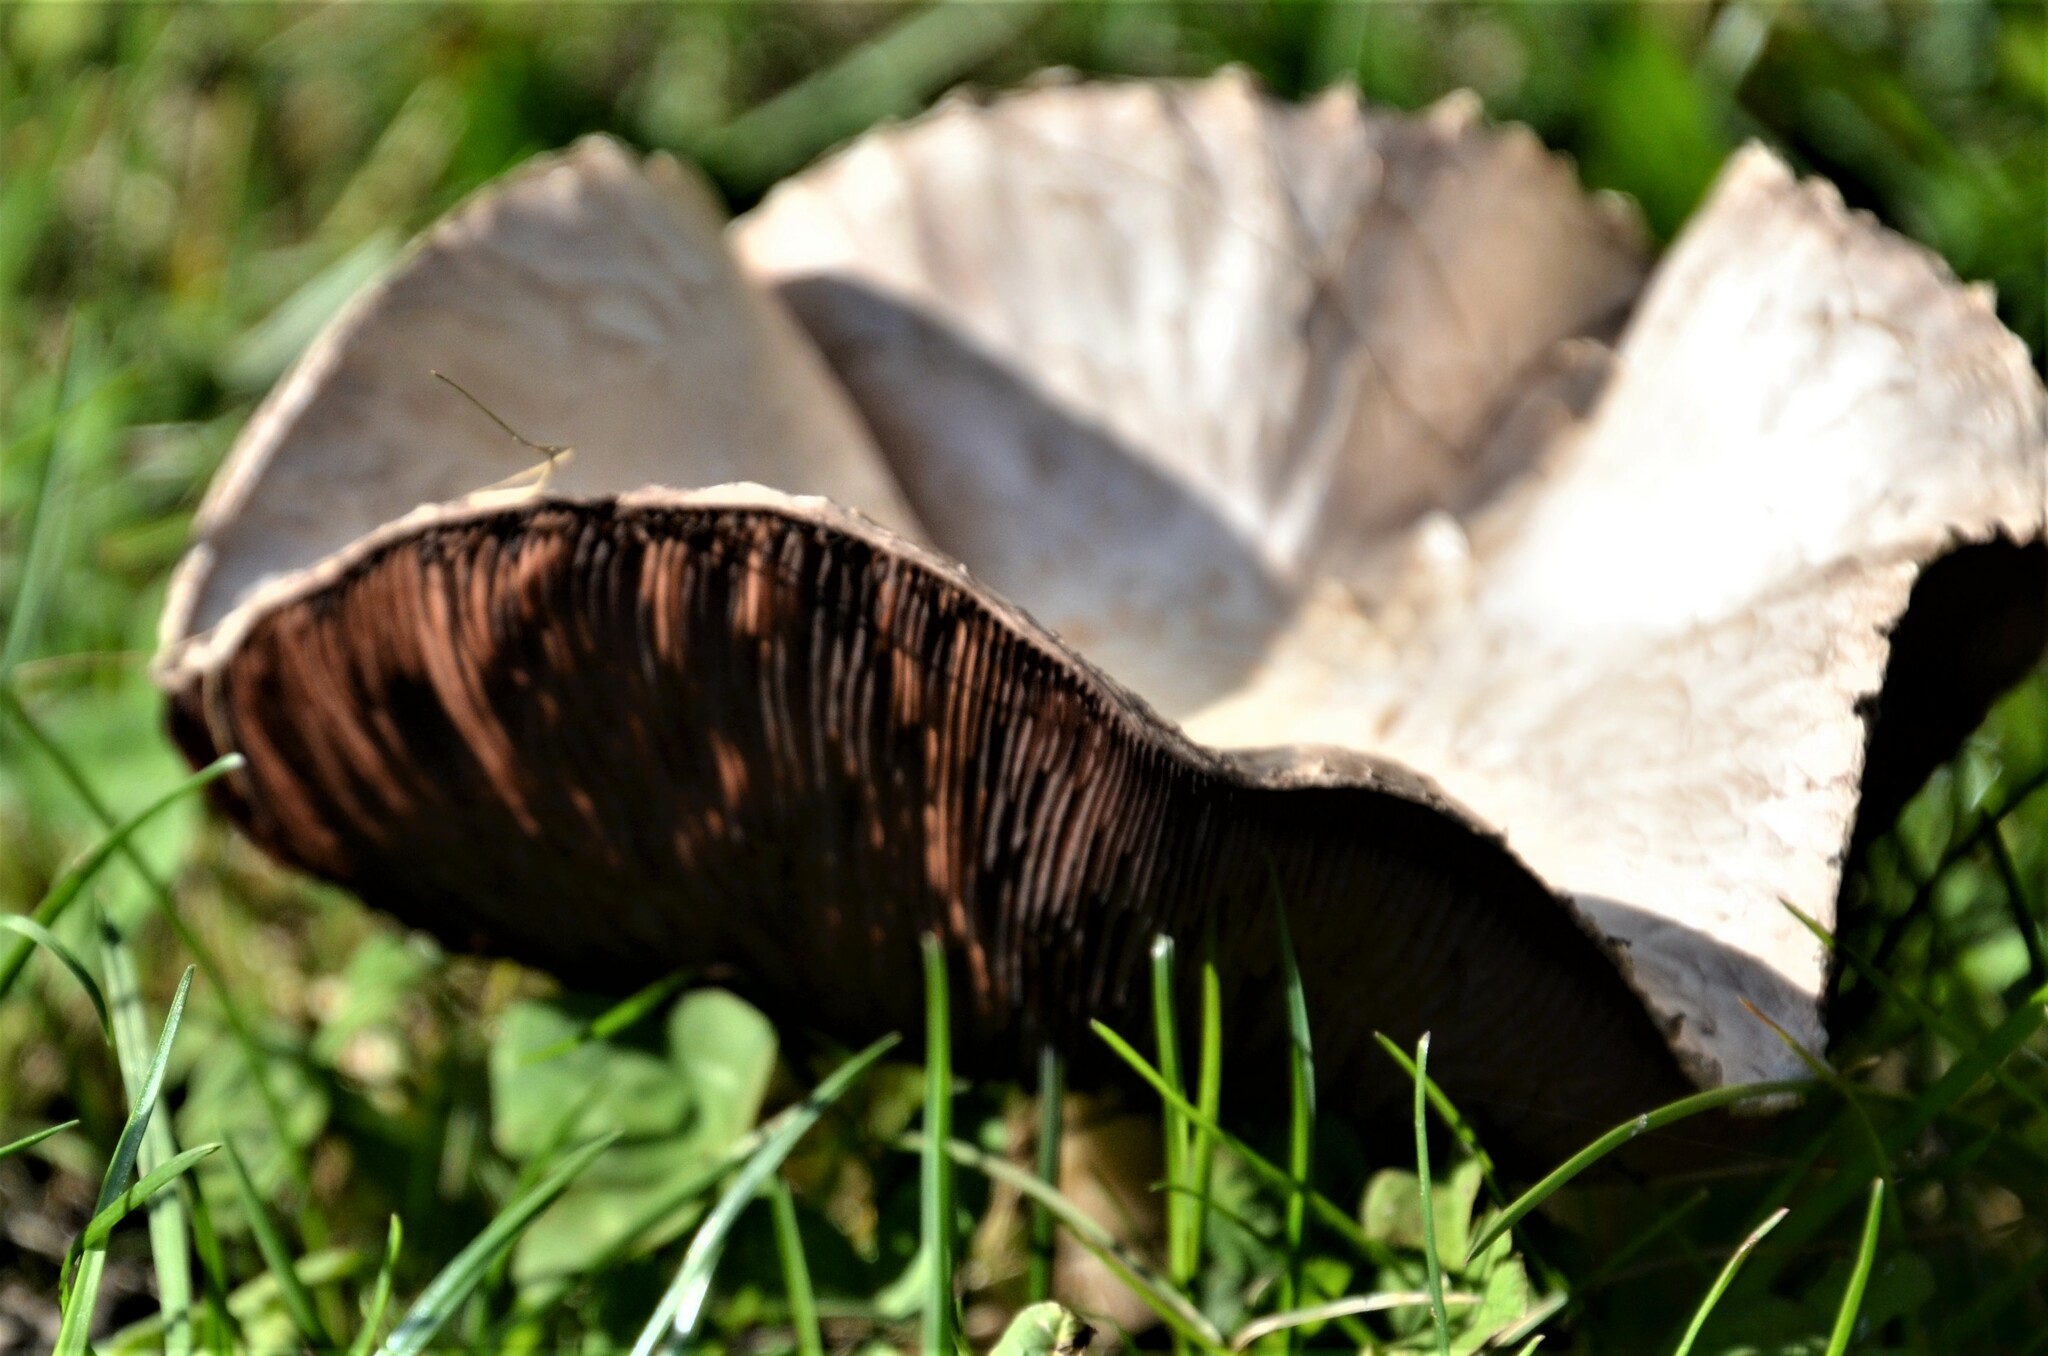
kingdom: Fungi
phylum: Basidiomycota
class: Agaricomycetes
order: Agaricales
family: Agaricaceae
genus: Agaricus
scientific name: Agaricus campestris
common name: Field mushroom
